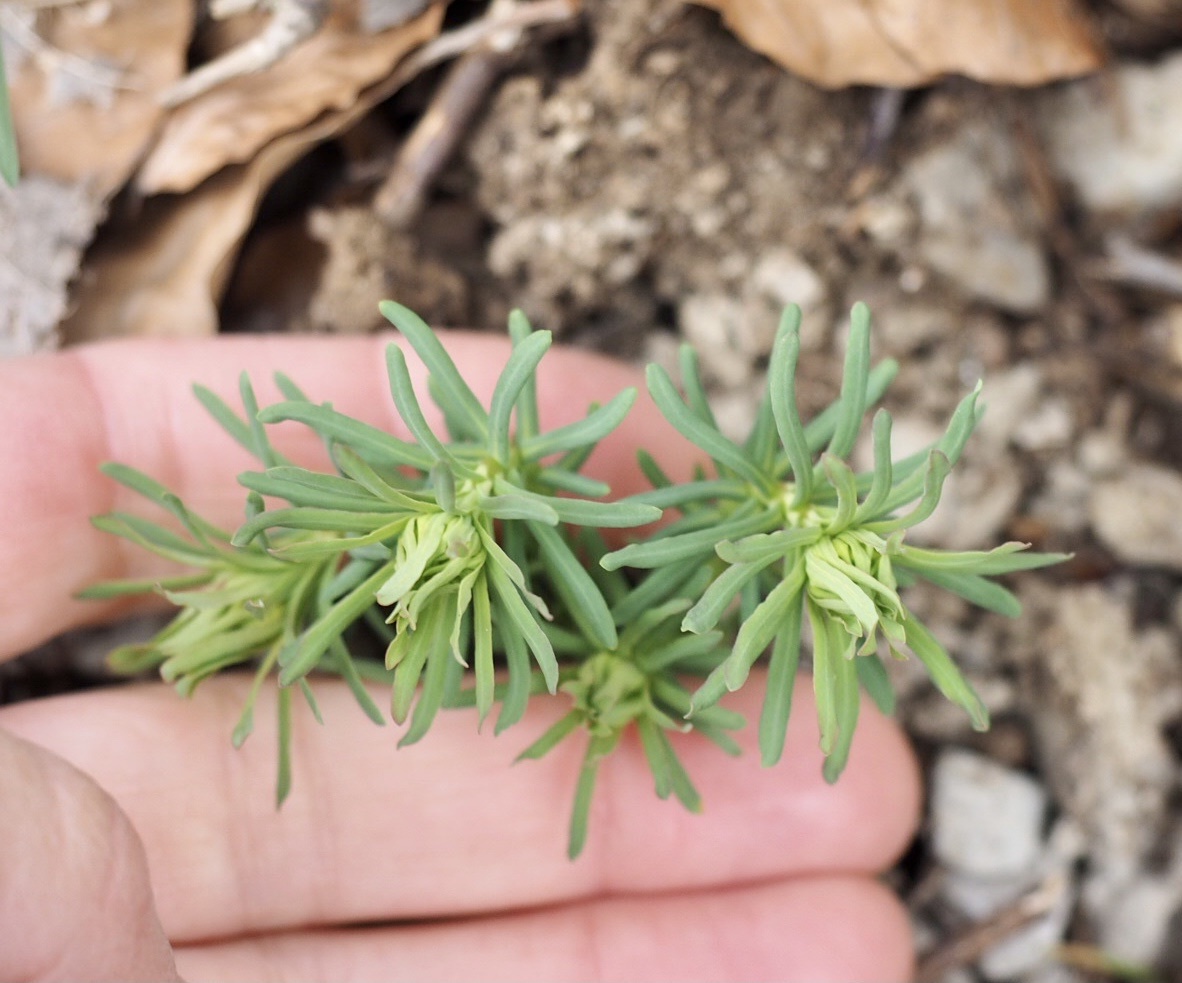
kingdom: Plantae
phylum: Tracheophyta
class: Magnoliopsida
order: Malpighiales
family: Euphorbiaceae
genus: Euphorbia
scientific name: Euphorbia cyparissias
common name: Cypress spurge
